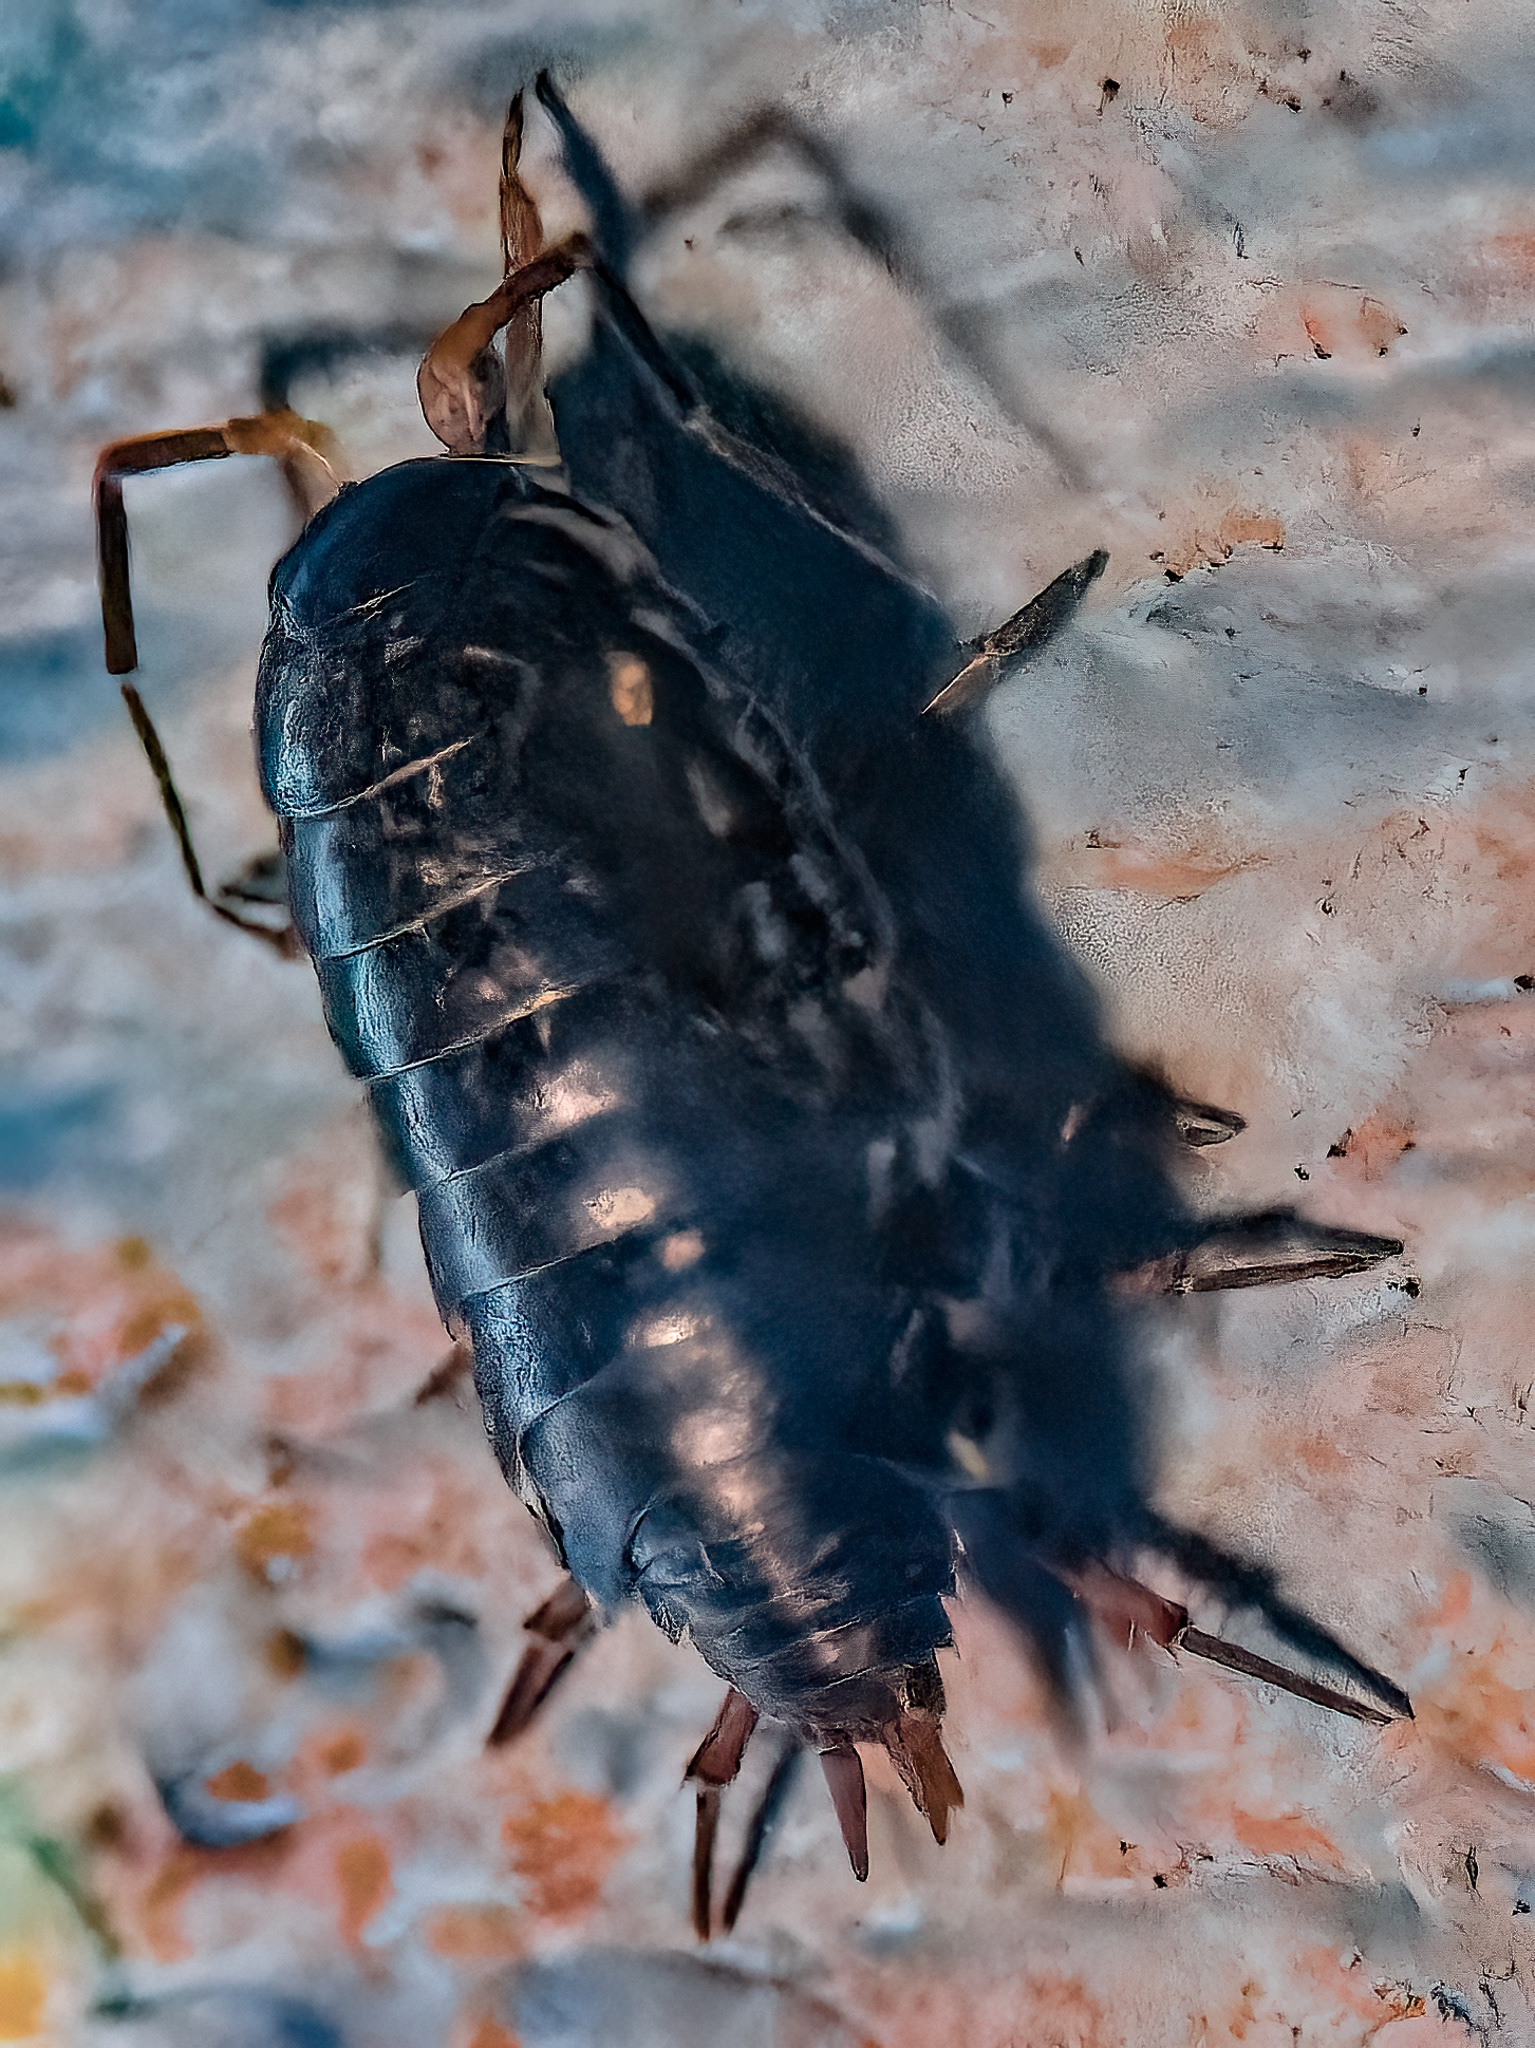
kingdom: Animalia
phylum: Arthropoda
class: Malacostraca
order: Isopoda
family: Philosciidae
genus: Philoscia
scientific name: Philoscia muscorum
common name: Common striped woodlouse
